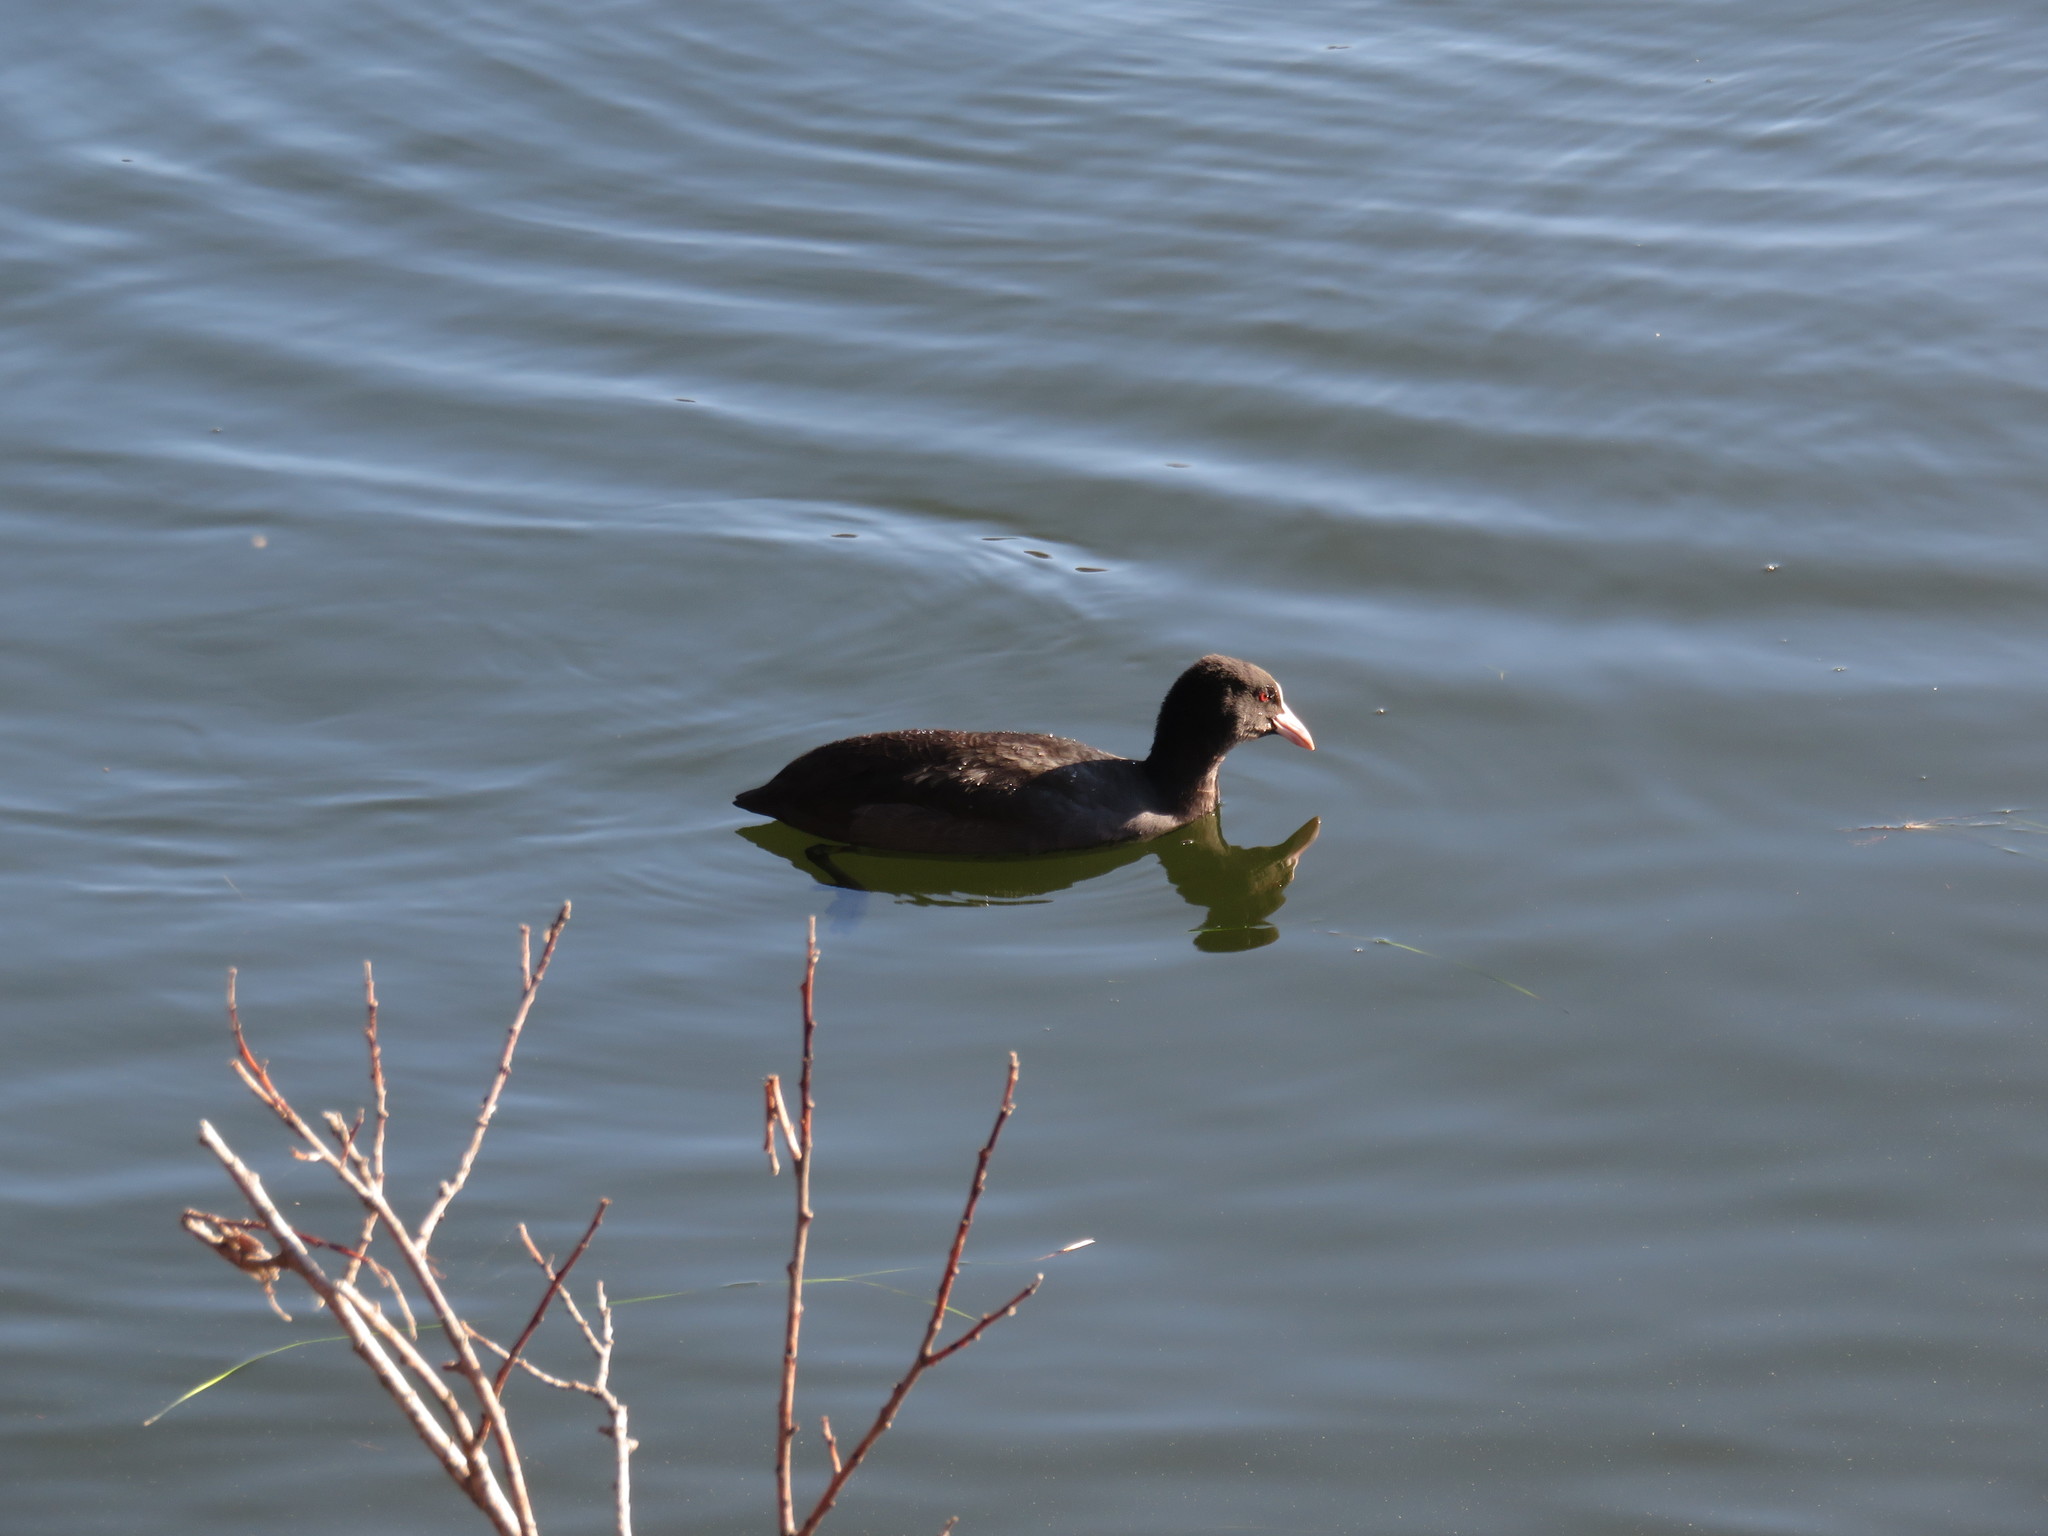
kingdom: Animalia
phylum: Chordata
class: Aves
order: Gruiformes
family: Rallidae
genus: Fulica
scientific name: Fulica atra
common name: Eurasian coot
